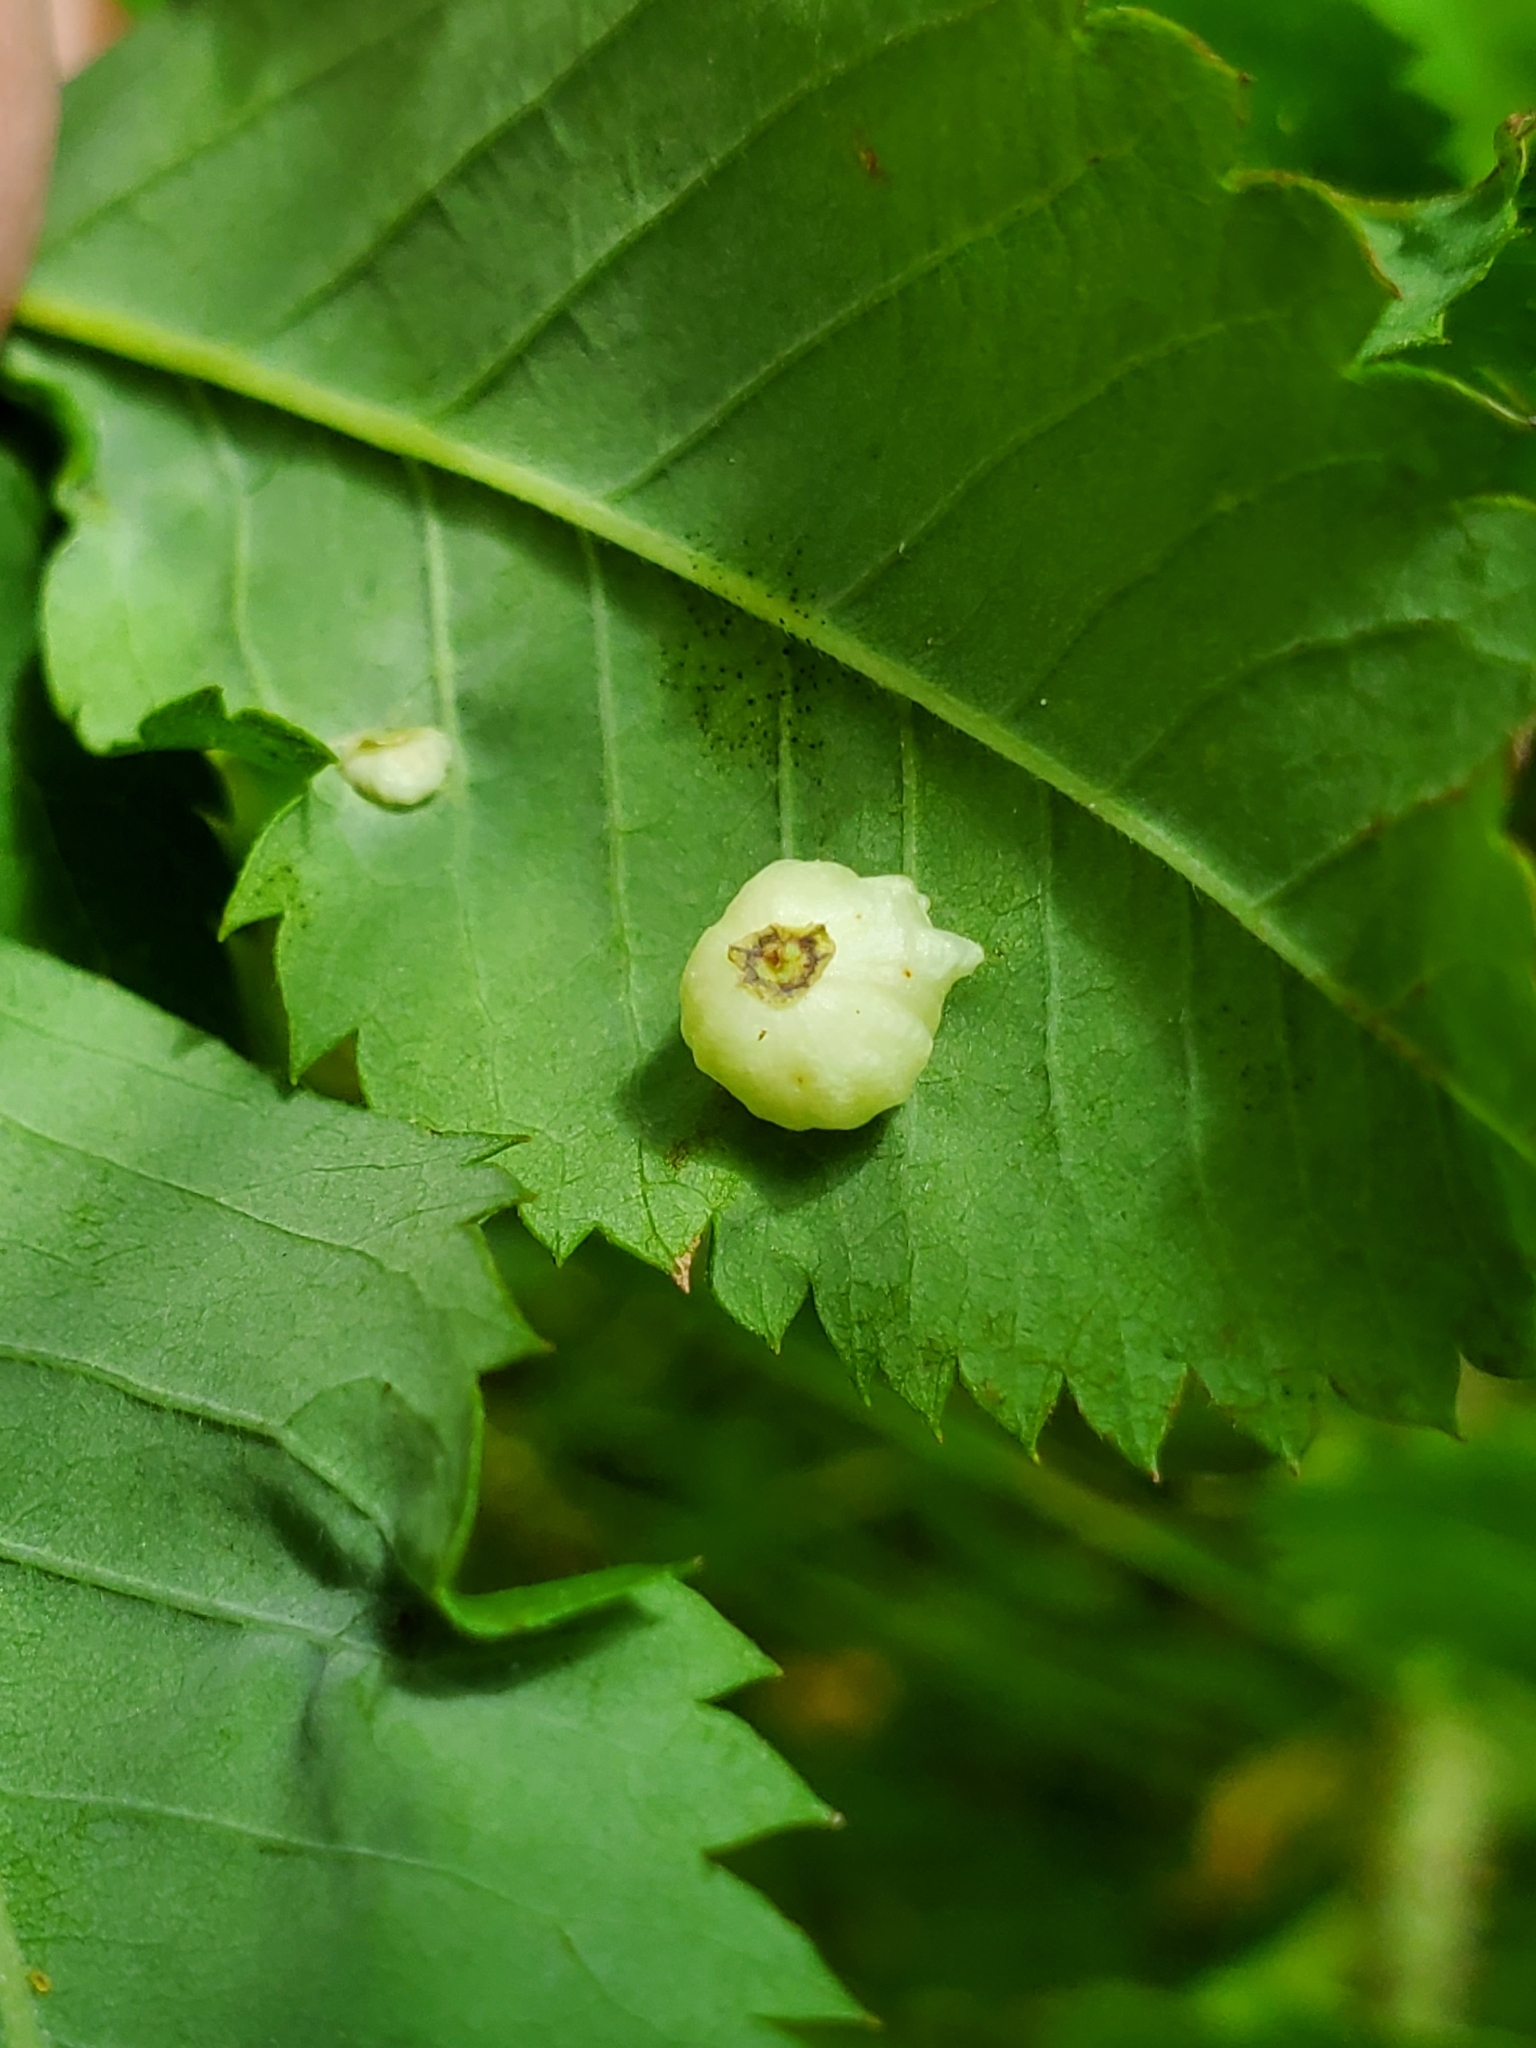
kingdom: Animalia
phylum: Arthropoda
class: Insecta
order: Hymenoptera
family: Cynipidae
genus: Diplolepis
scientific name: Diplolepis gracilis
